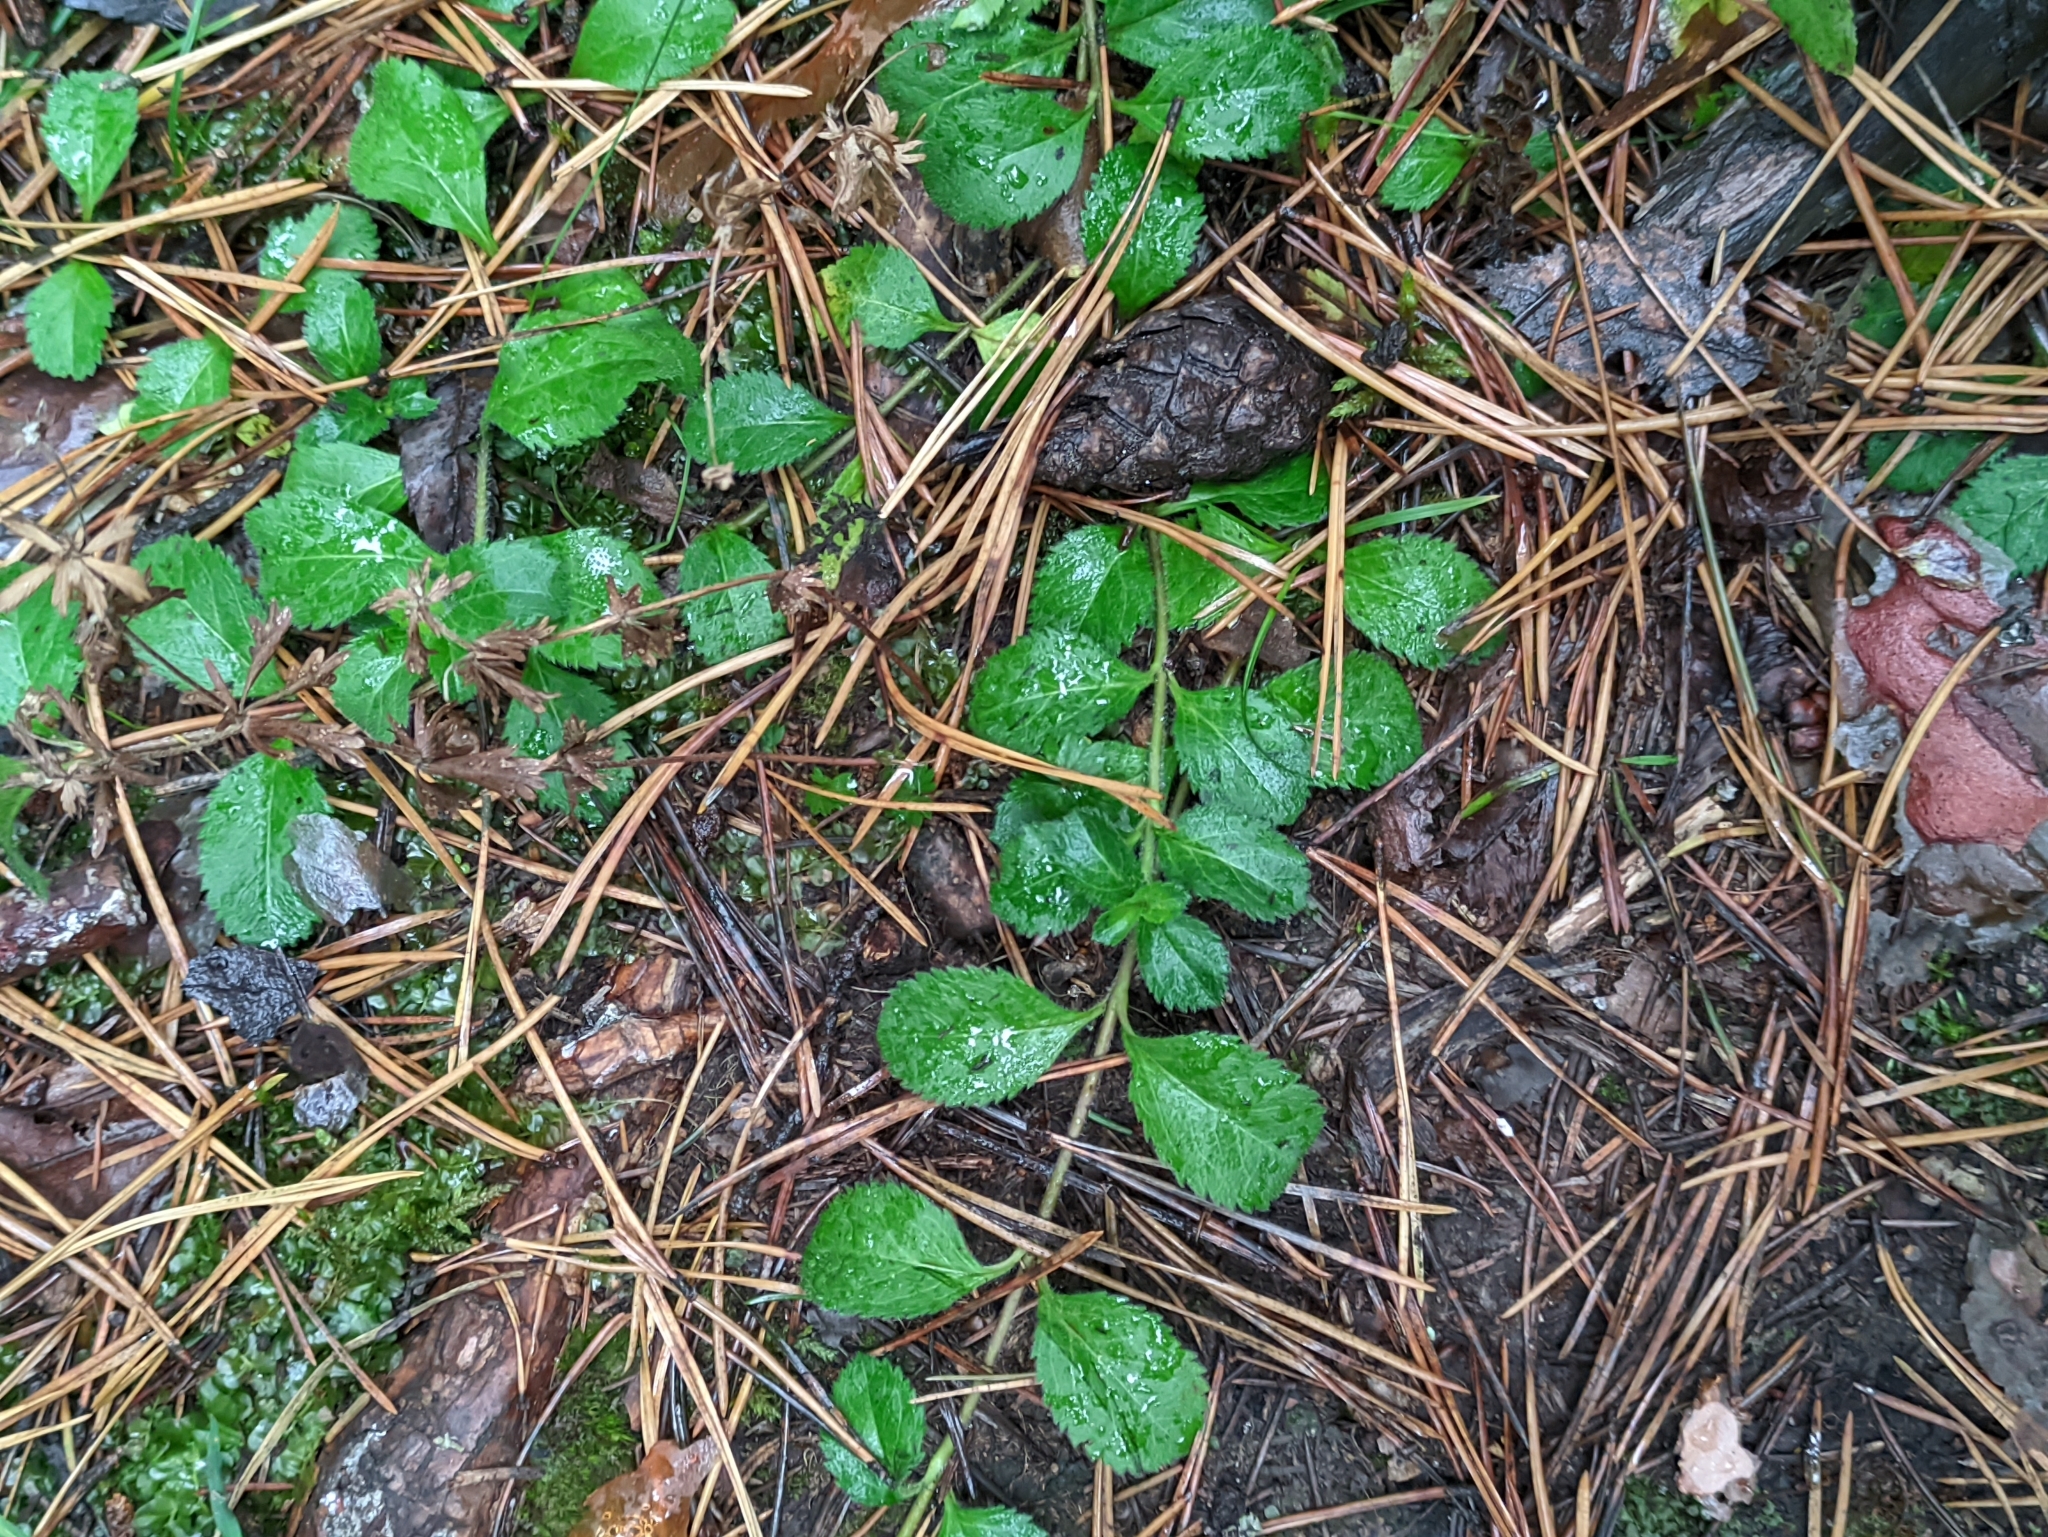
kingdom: Plantae
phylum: Tracheophyta
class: Magnoliopsida
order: Lamiales
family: Plantaginaceae
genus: Veronica
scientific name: Veronica officinalis
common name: Common speedwell
